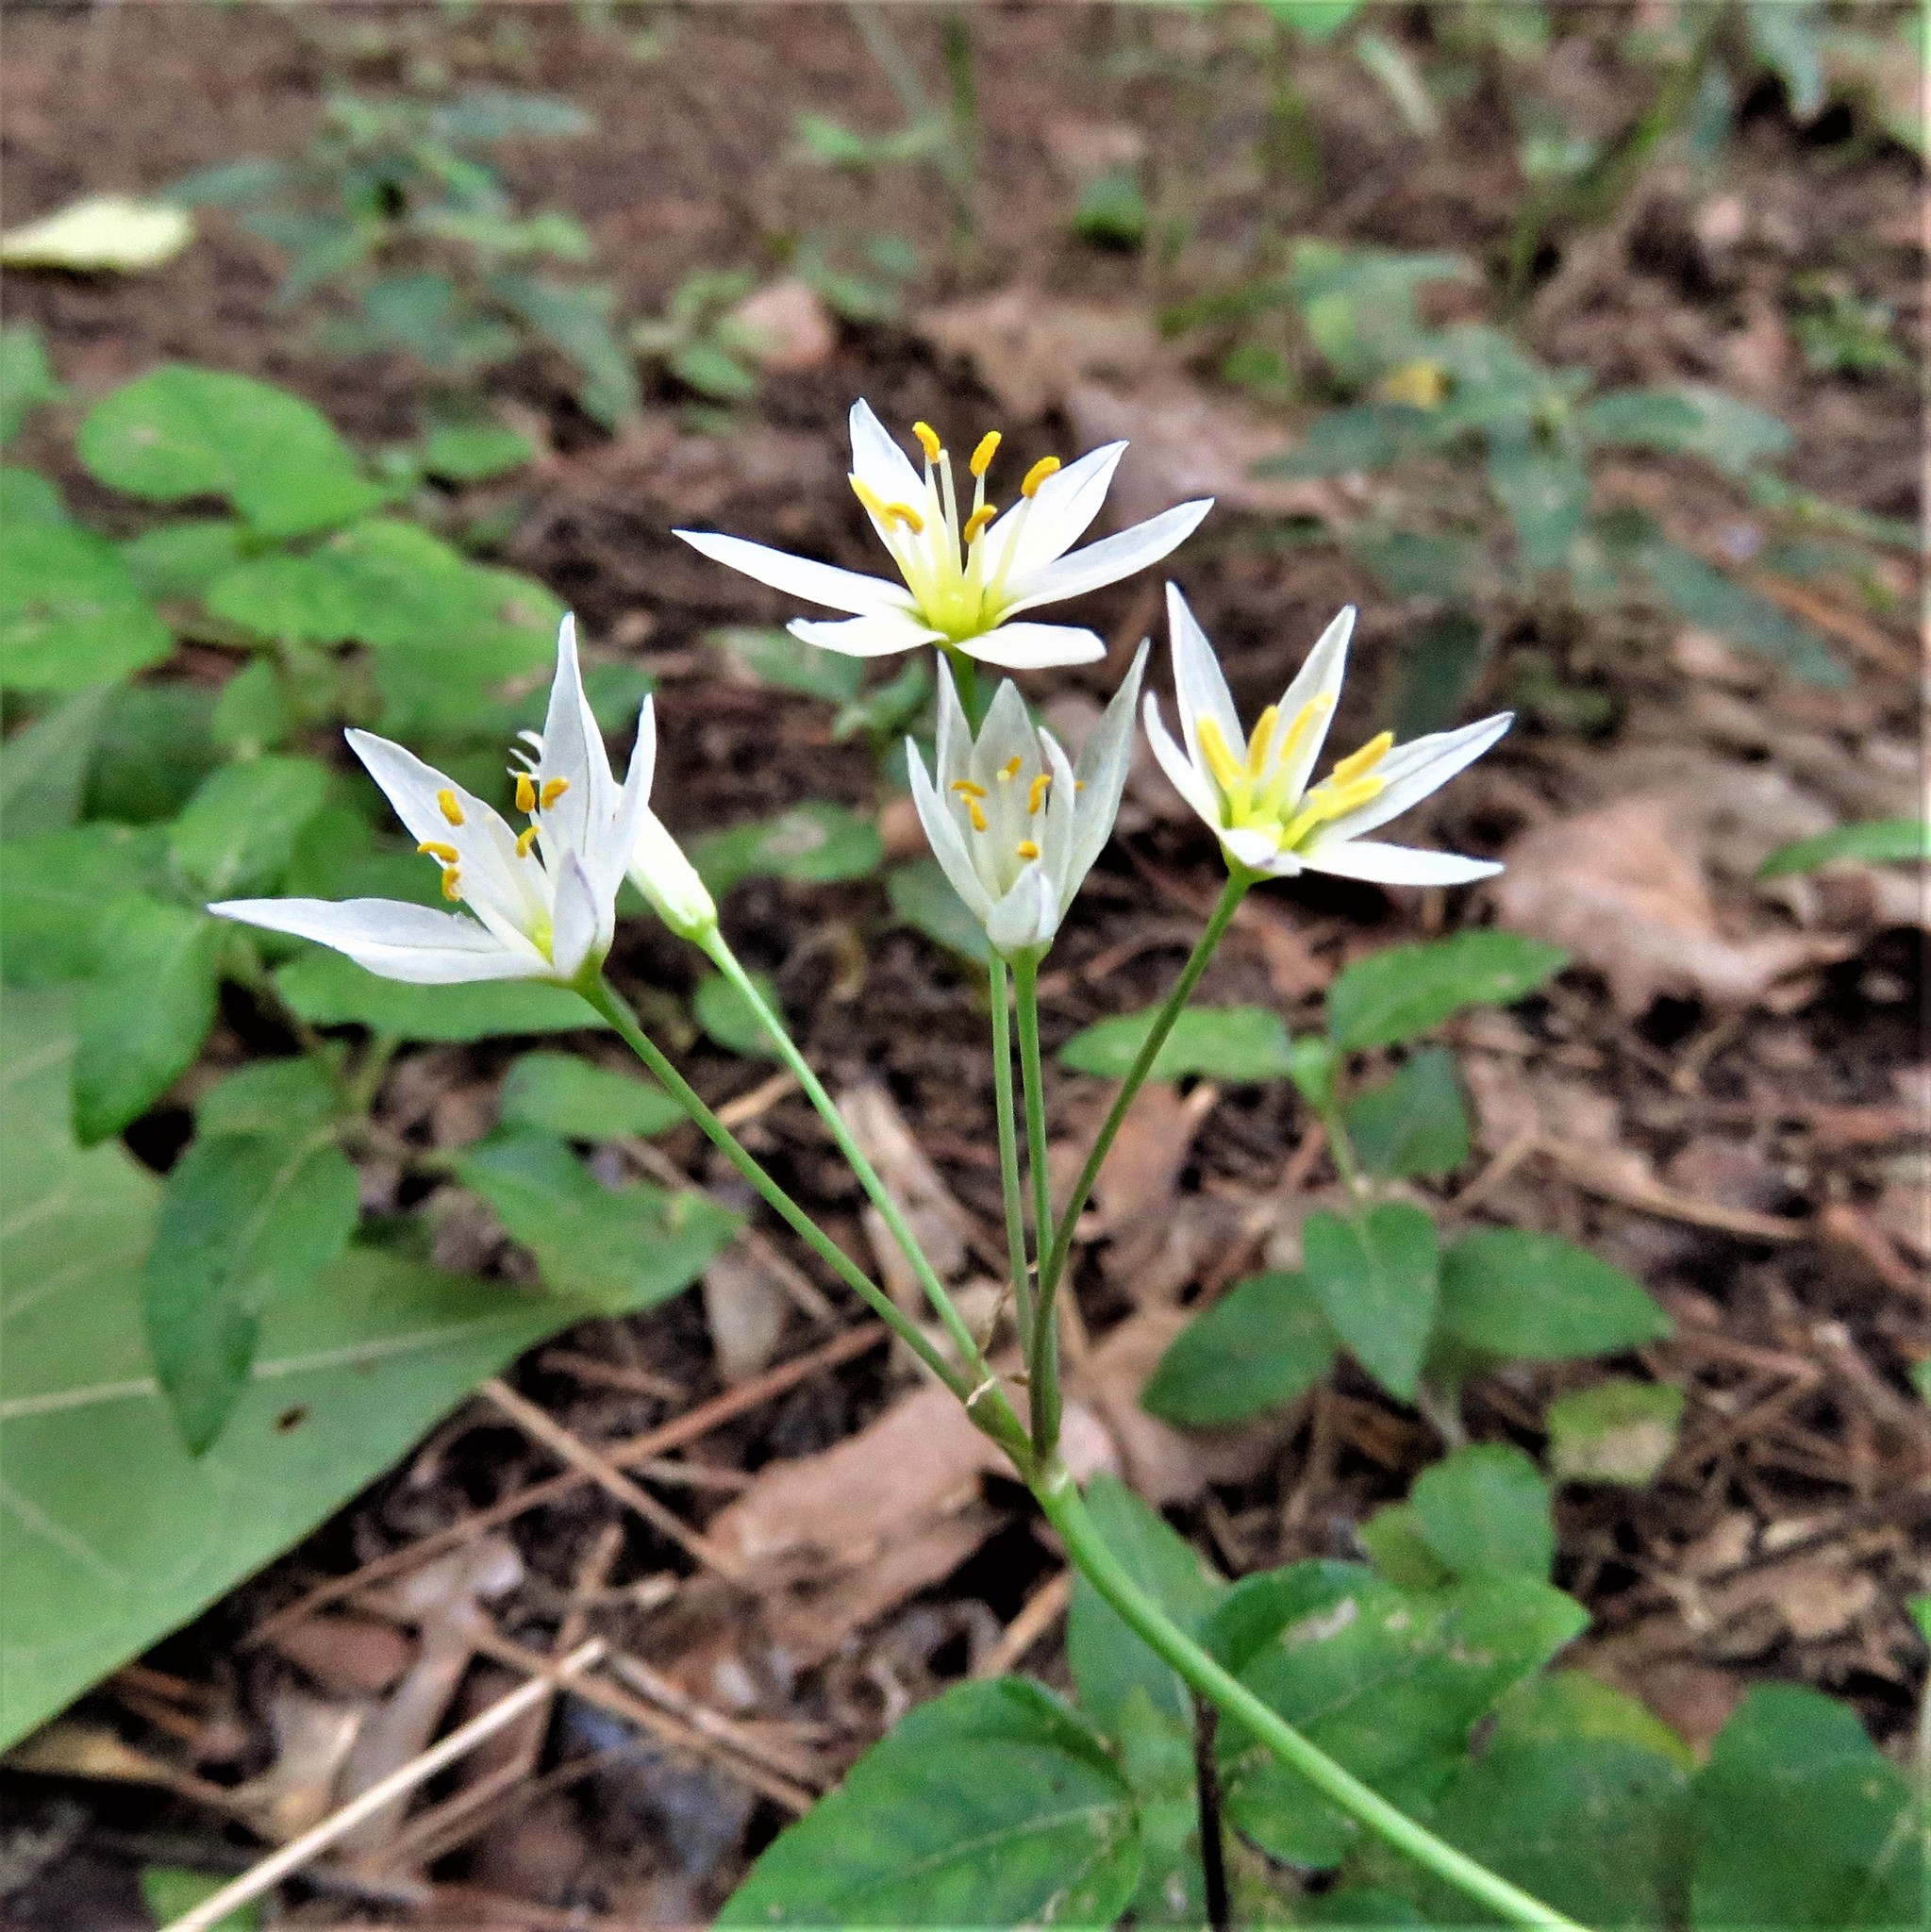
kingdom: Plantae
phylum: Tracheophyta
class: Liliopsida
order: Asparagales
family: Amaryllidaceae
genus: Nothoscordum
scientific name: Nothoscordum bivalve
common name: Crow-poison
